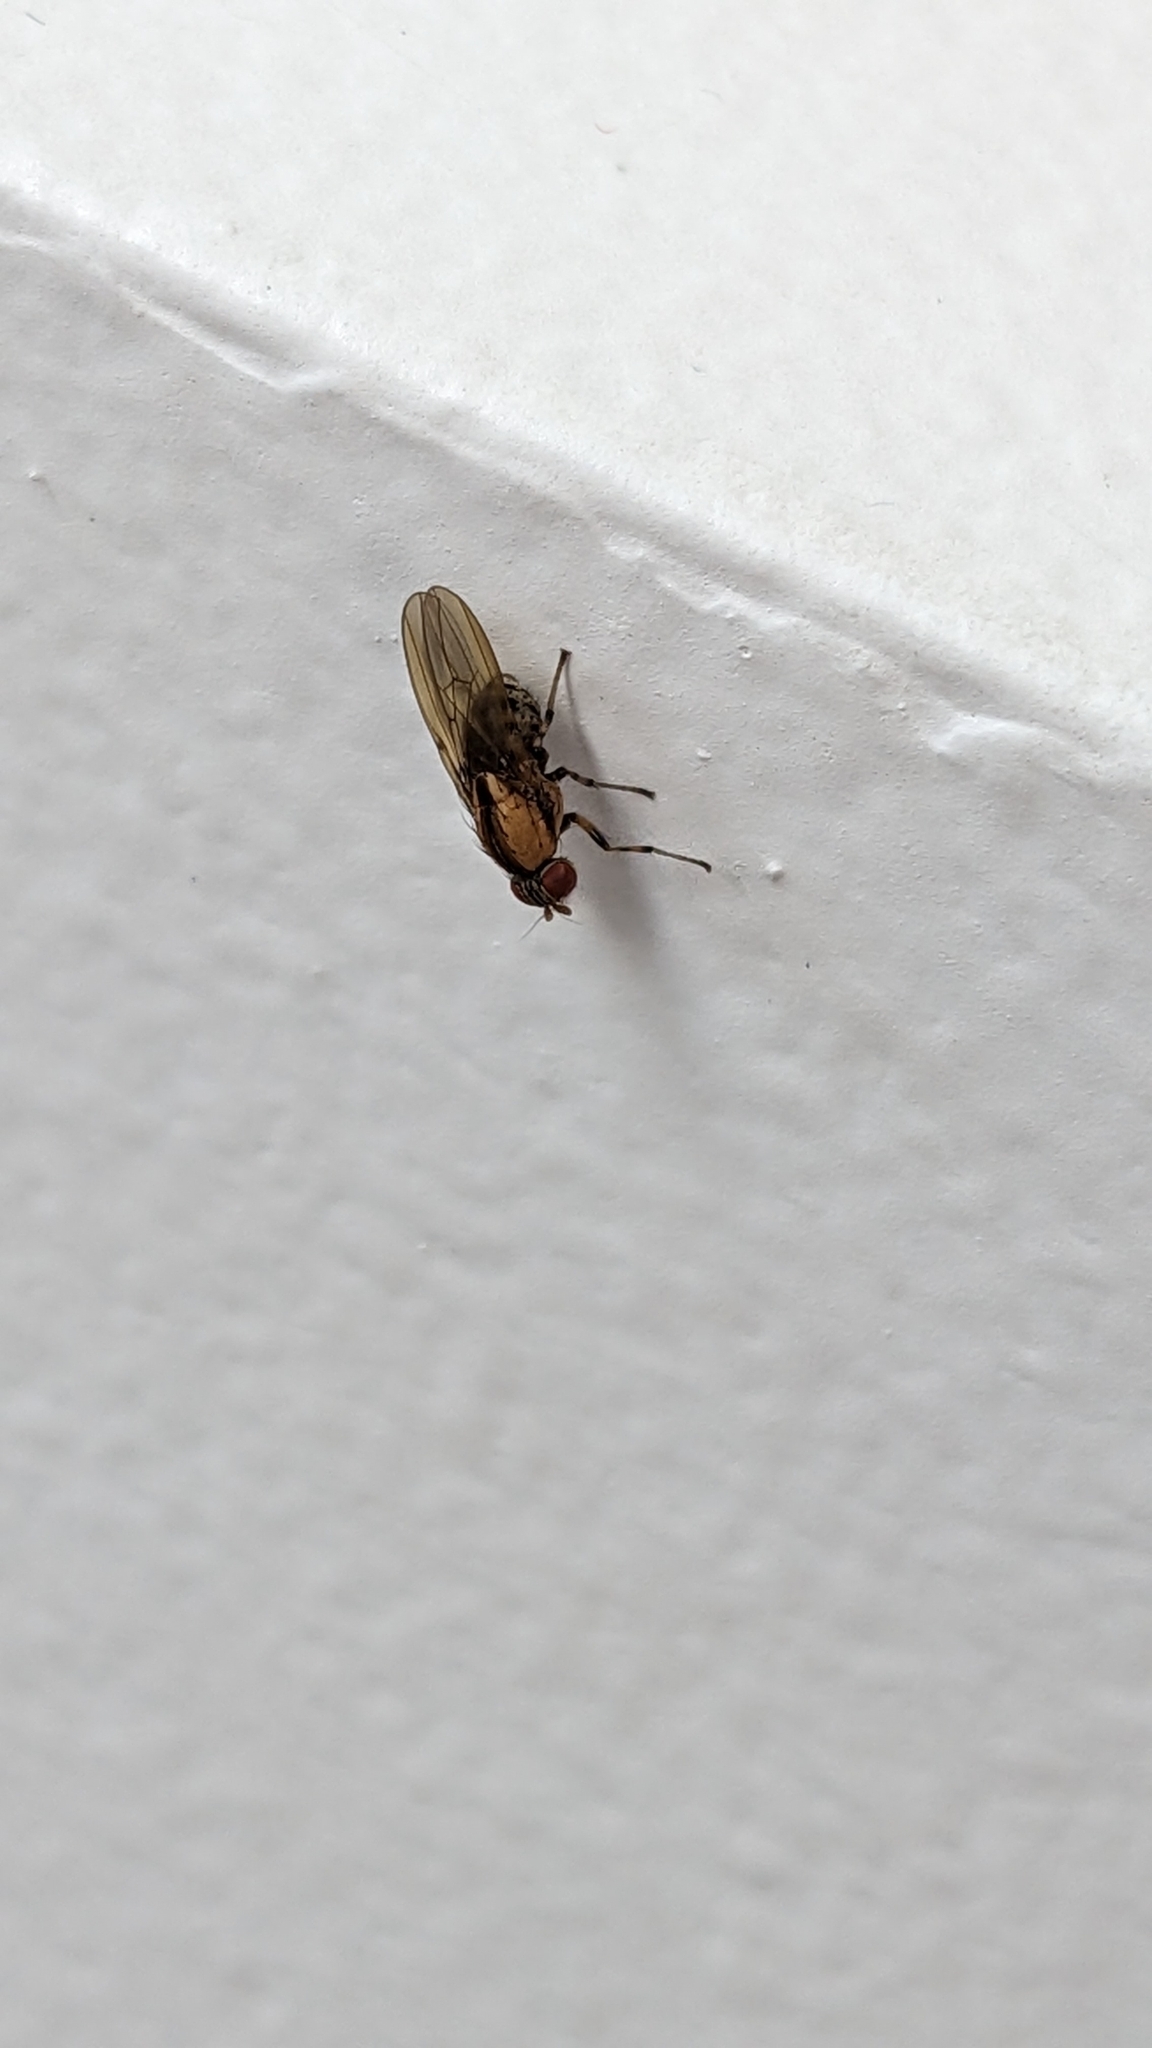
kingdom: Animalia
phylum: Arthropoda
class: Insecta
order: Diptera
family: Lauxaniidae
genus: Sapromyza
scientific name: Sapromyza neozelandica
